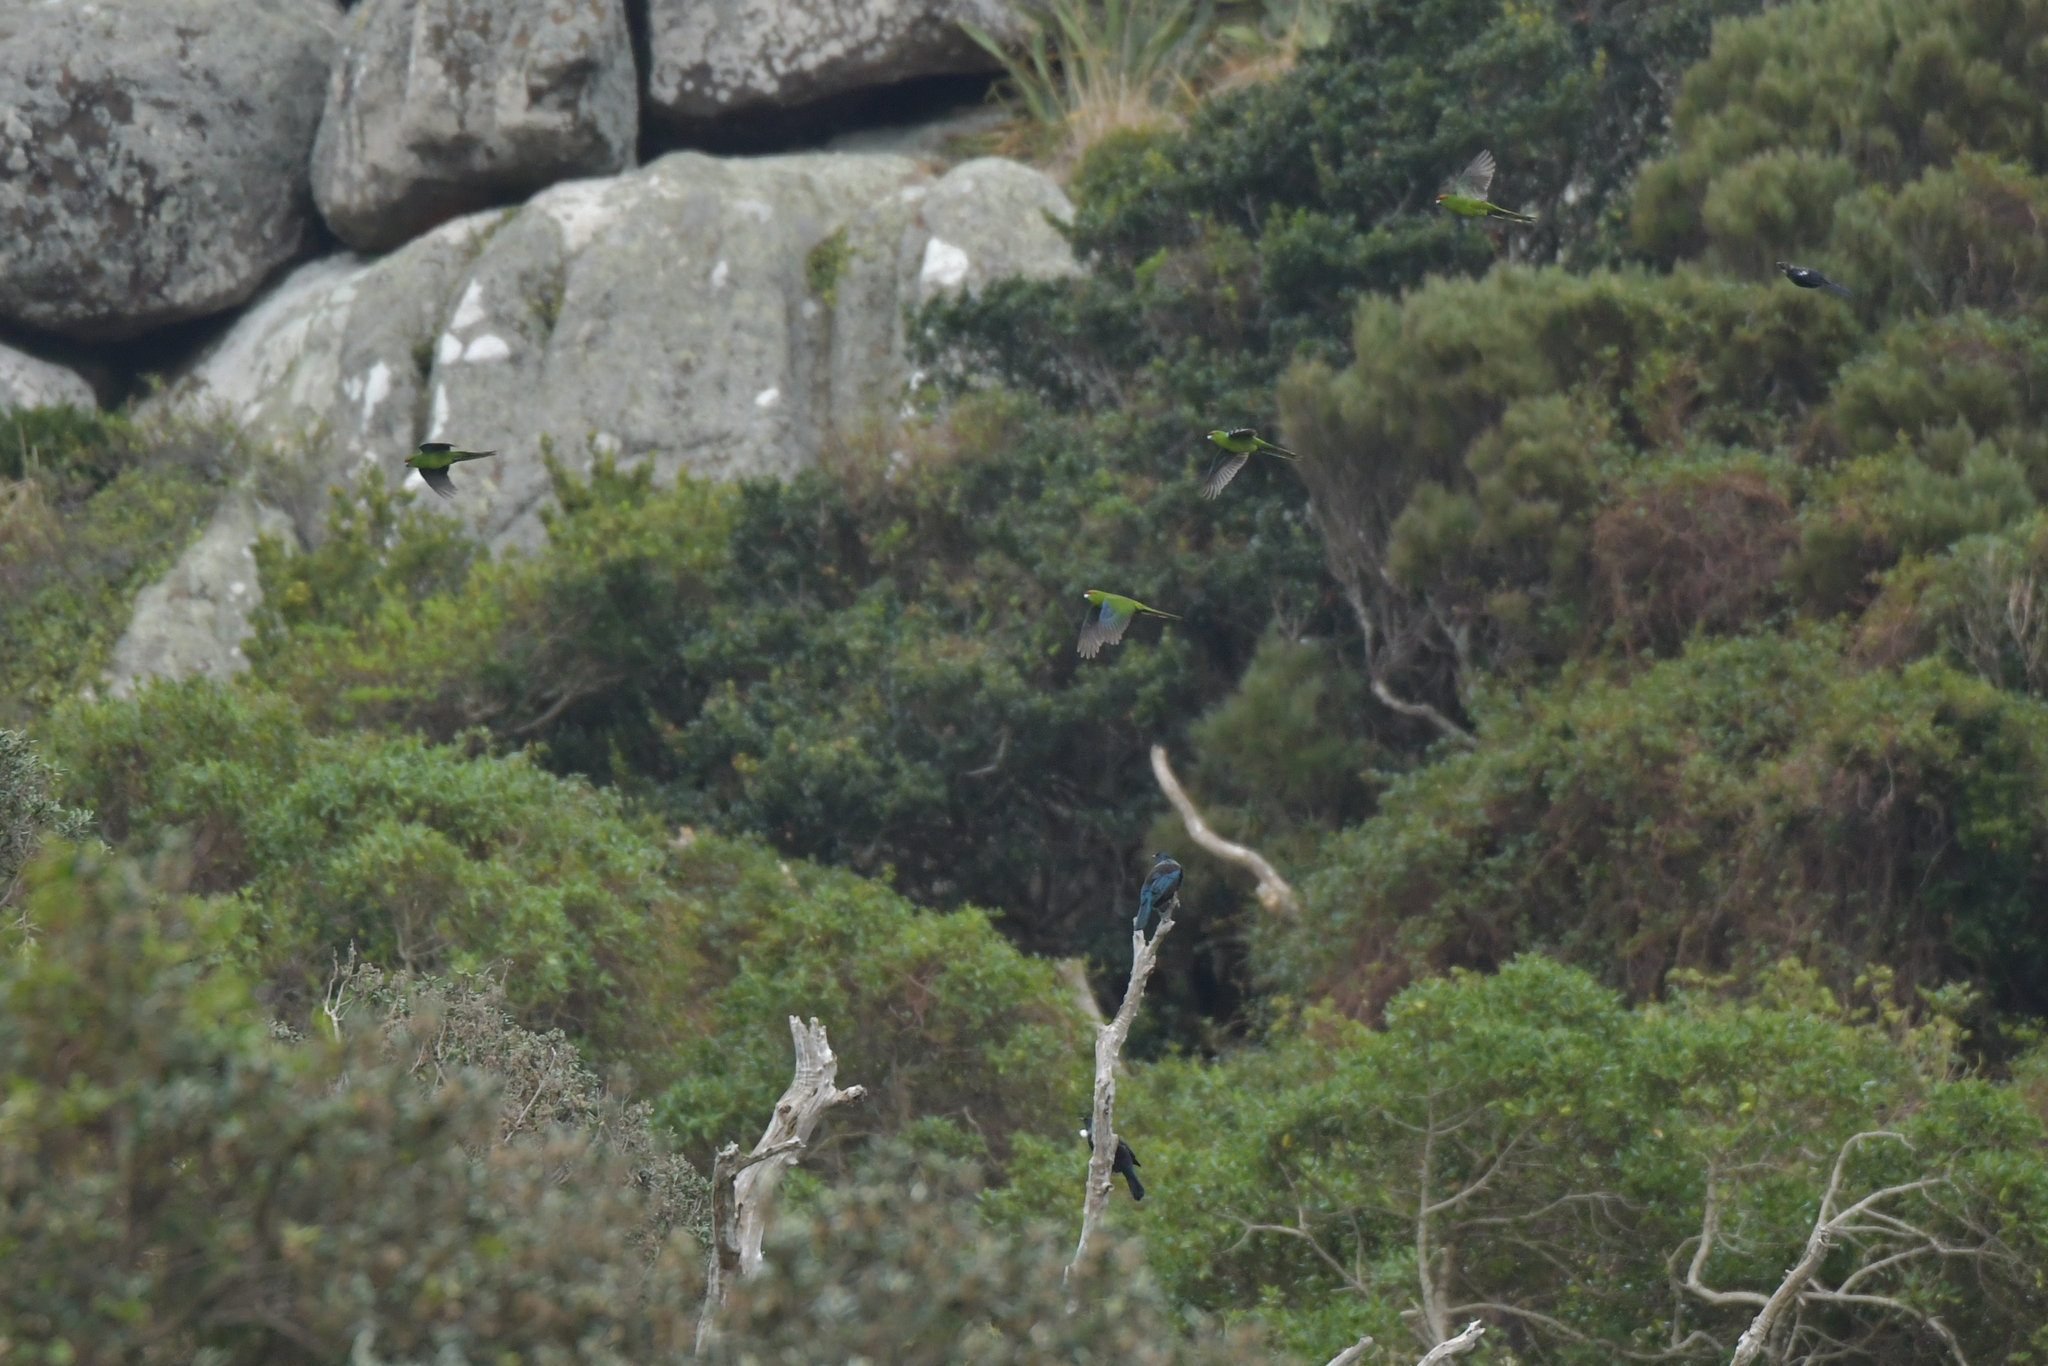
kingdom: Animalia
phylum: Chordata
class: Aves
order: Psittaciformes
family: Psittacidae
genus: Cyanoramphus
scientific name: Cyanoramphus novaezelandiae
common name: Red-fronted parakeet
